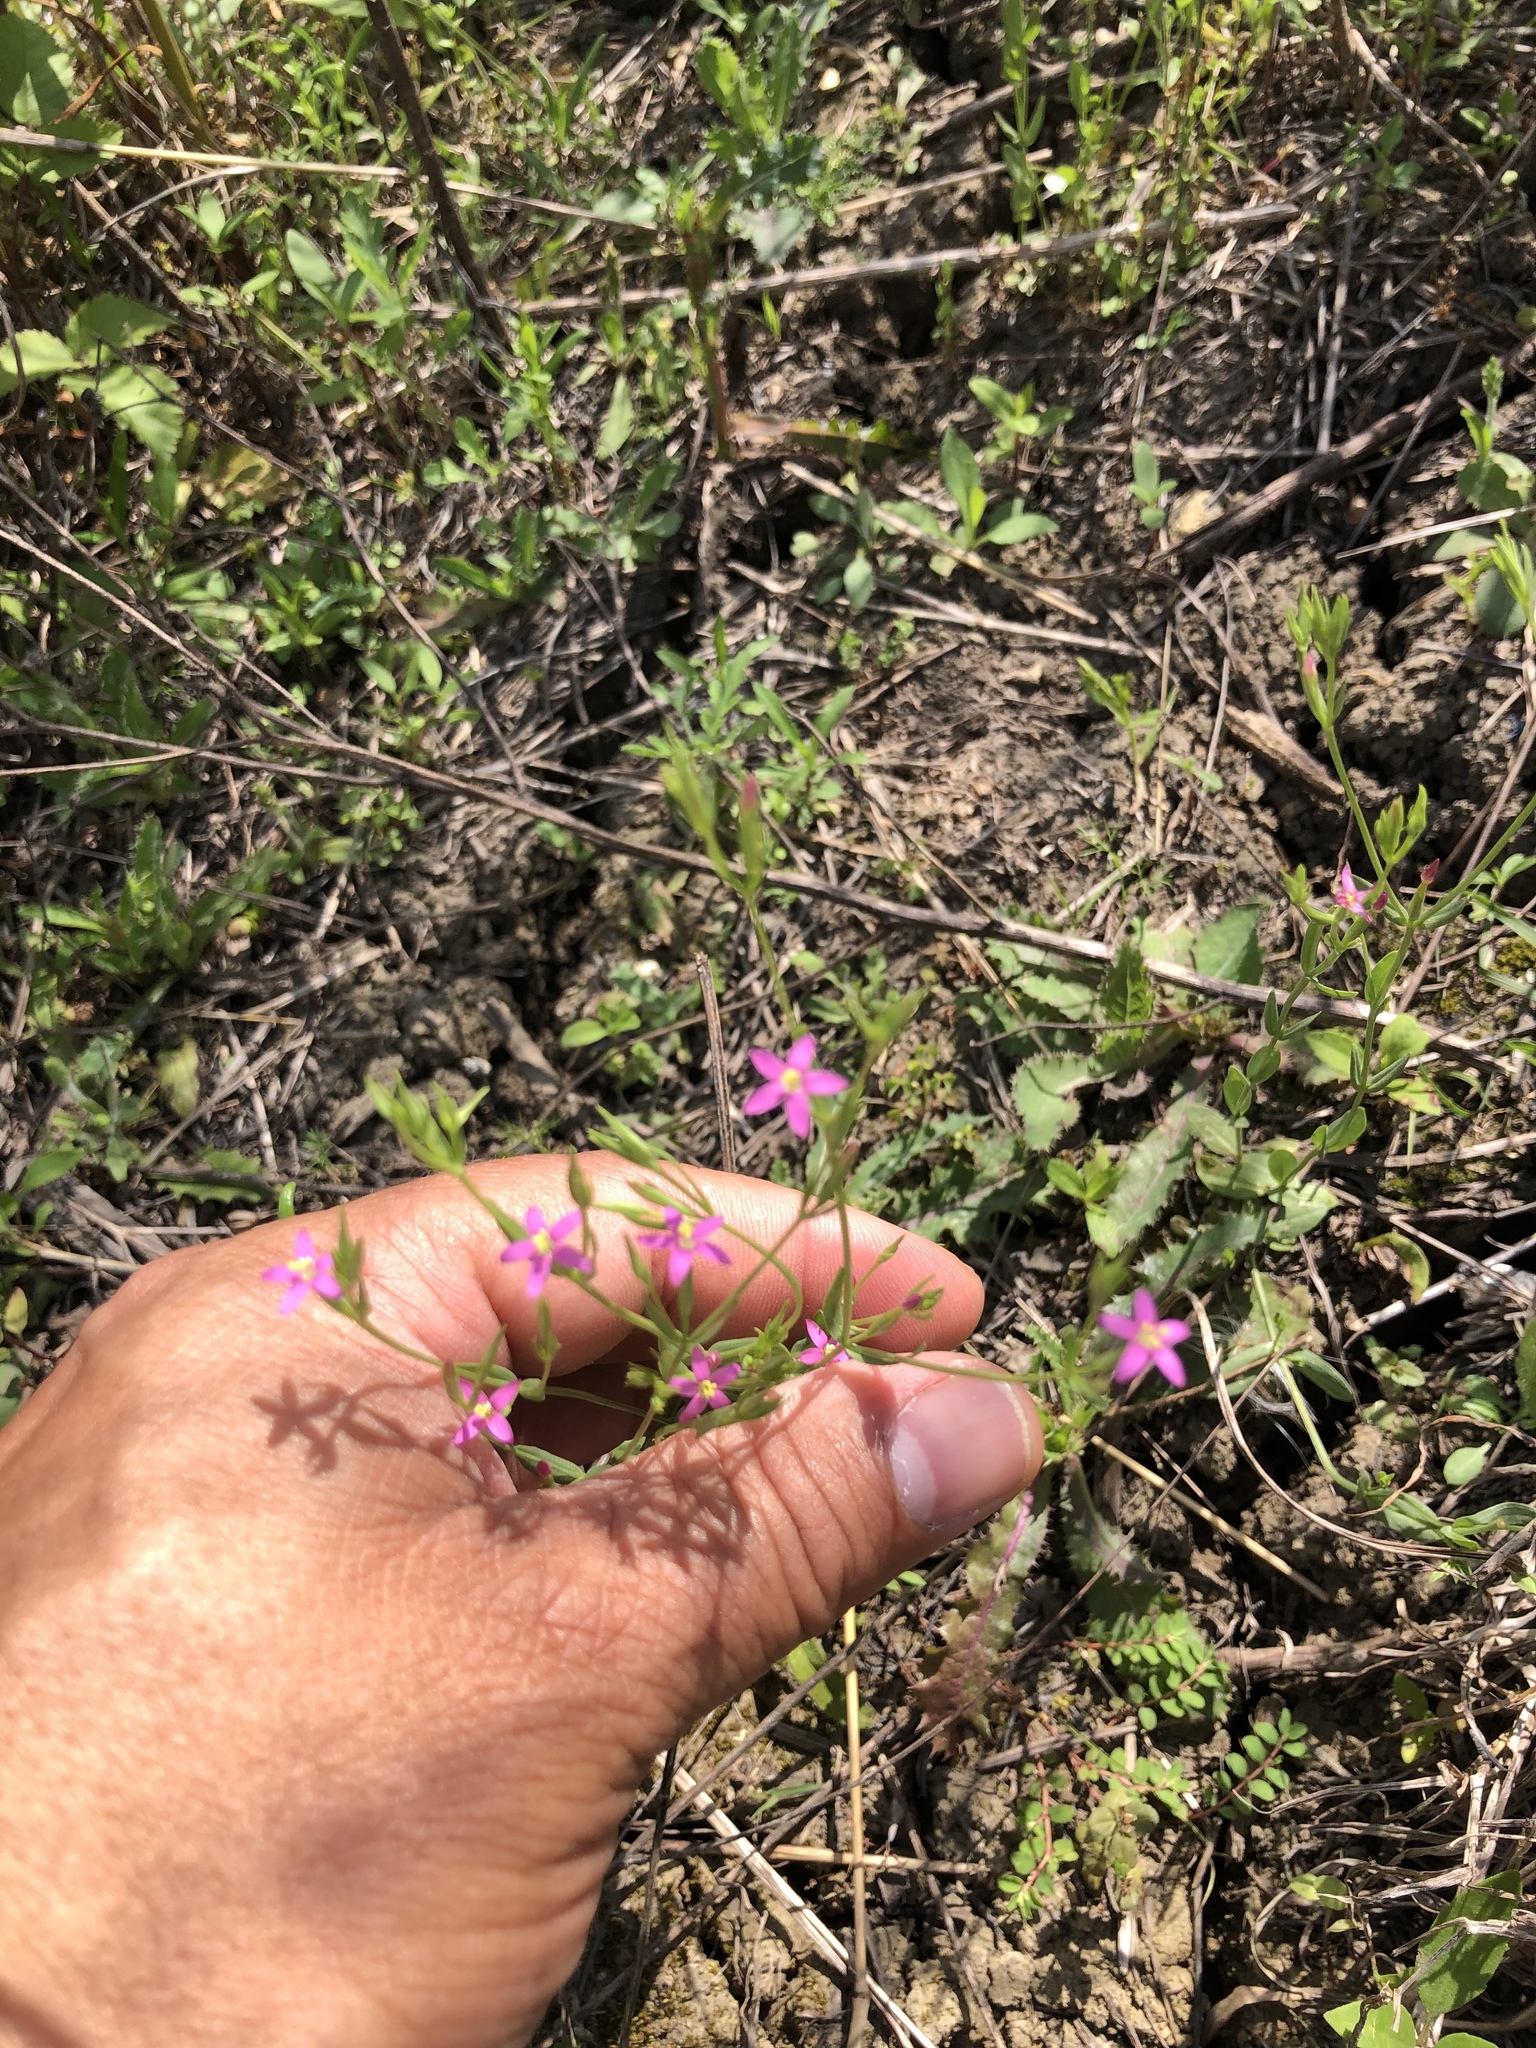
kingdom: Plantae
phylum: Tracheophyta
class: Magnoliopsida
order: Gentianales
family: Gentianaceae
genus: Centaurium
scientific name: Centaurium pulchellum
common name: Lesser centaury
